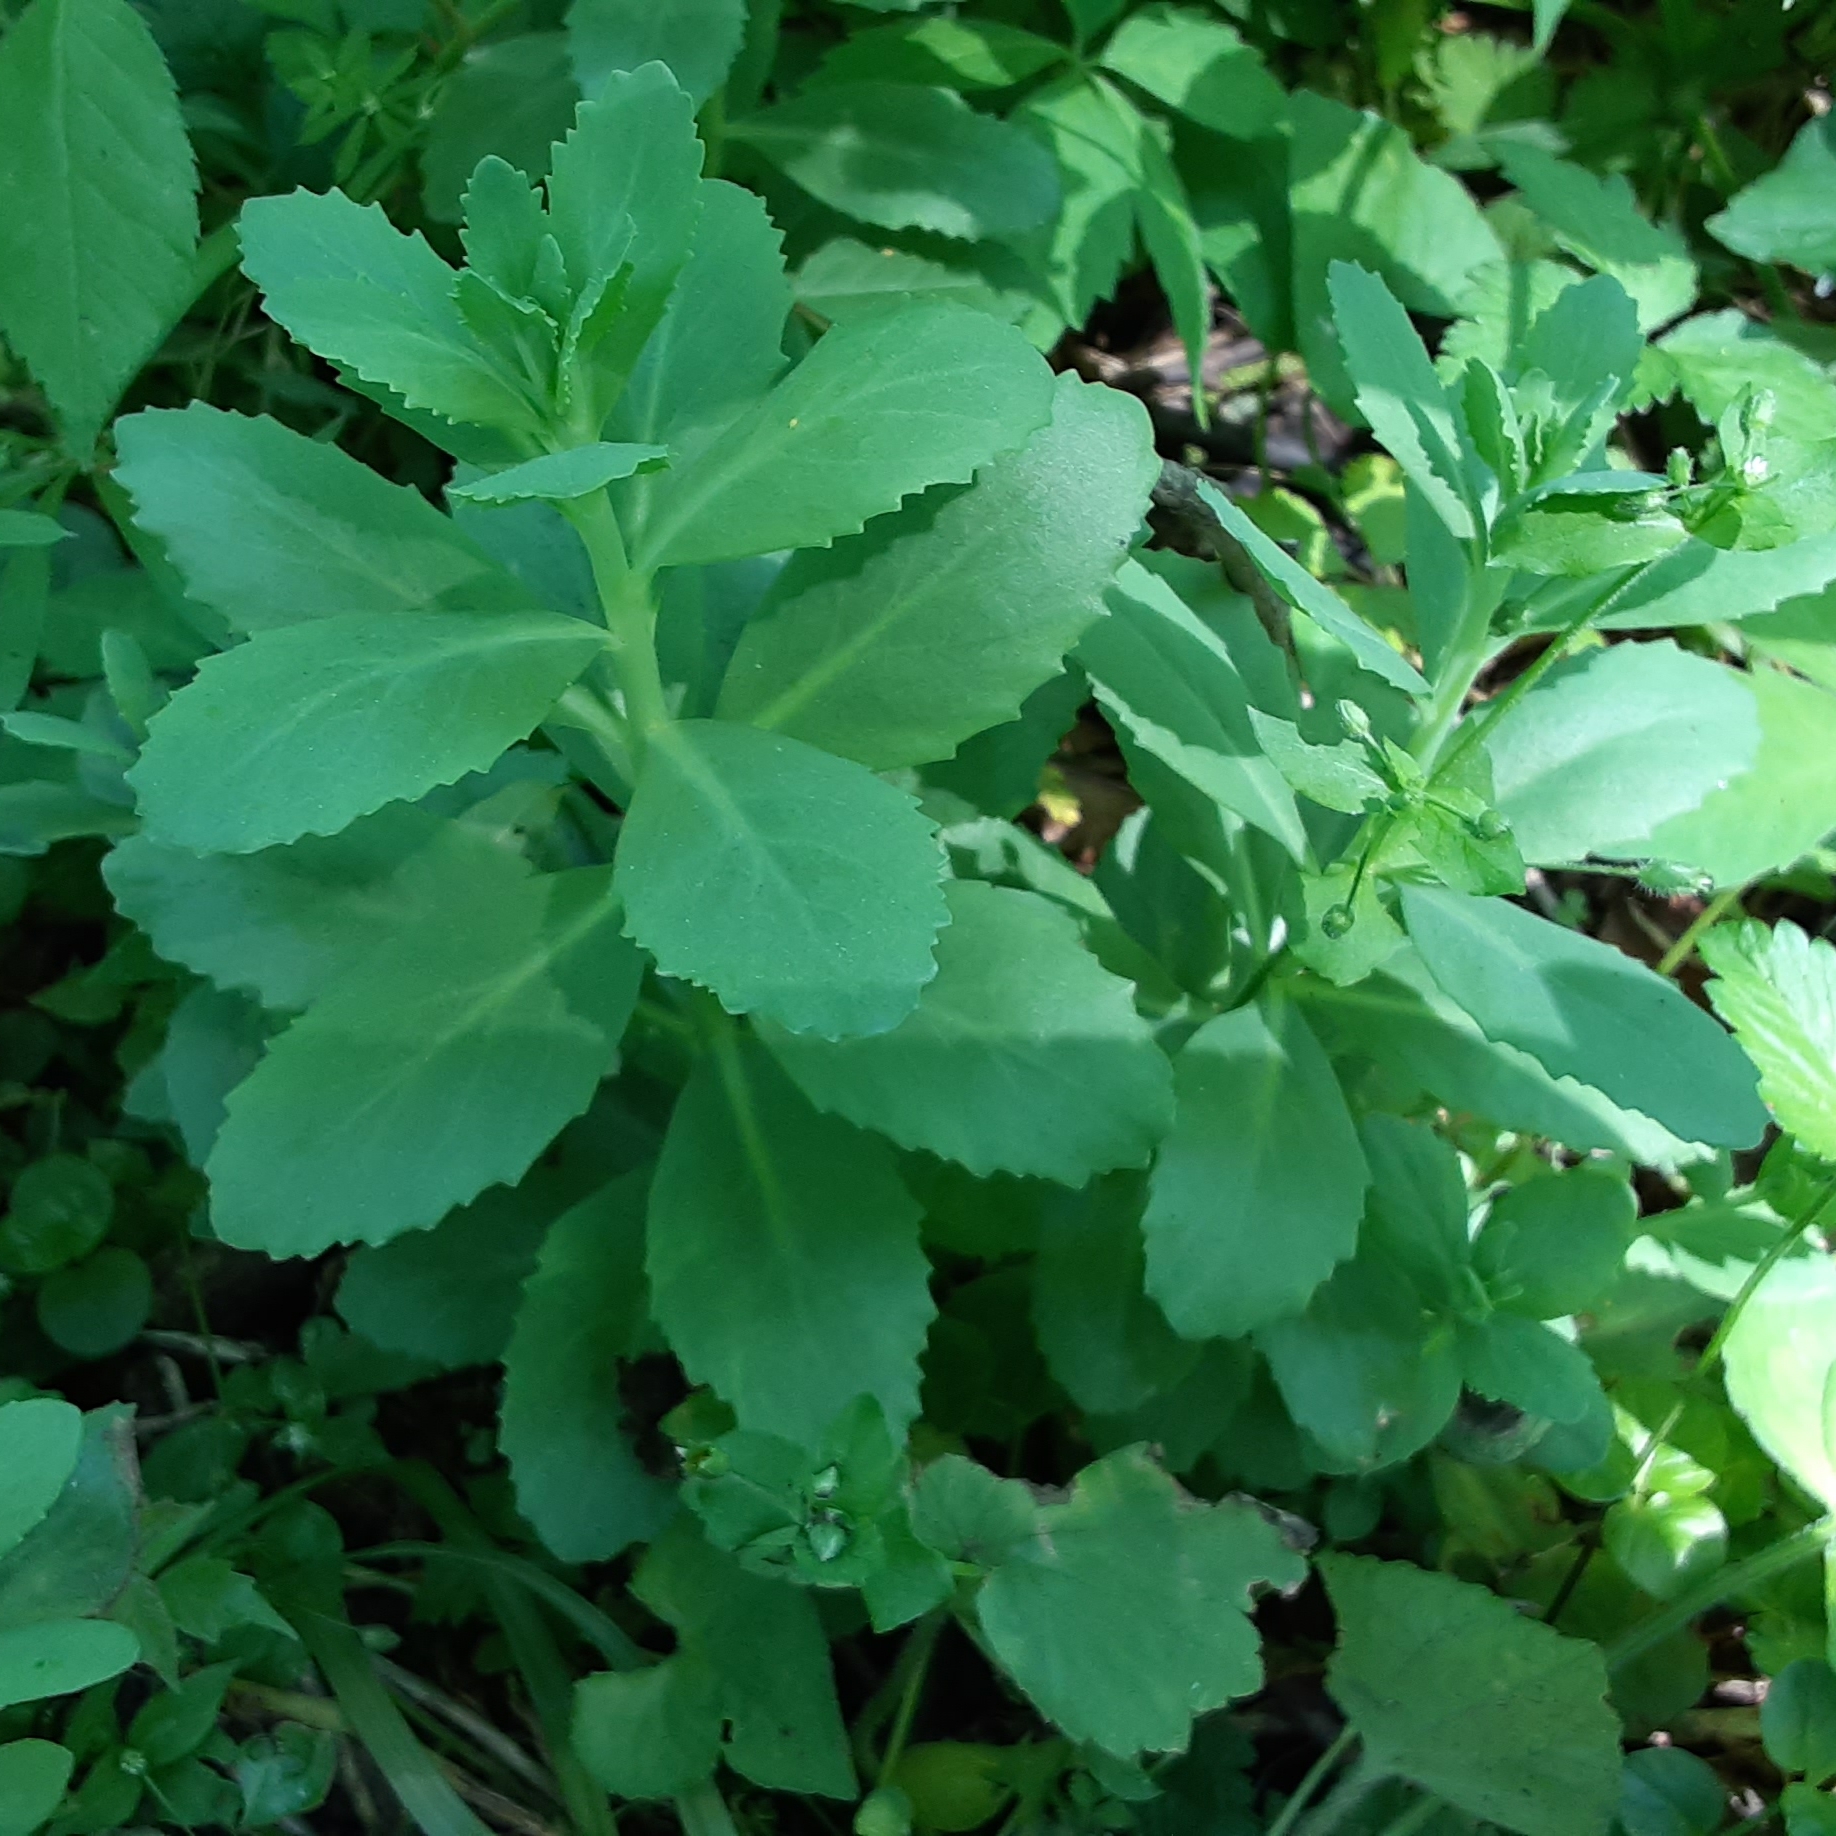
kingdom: Plantae
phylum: Tracheophyta
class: Magnoliopsida
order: Saxifragales
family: Crassulaceae
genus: Hylotelephium
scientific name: Hylotelephium telephium
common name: Live-forever
